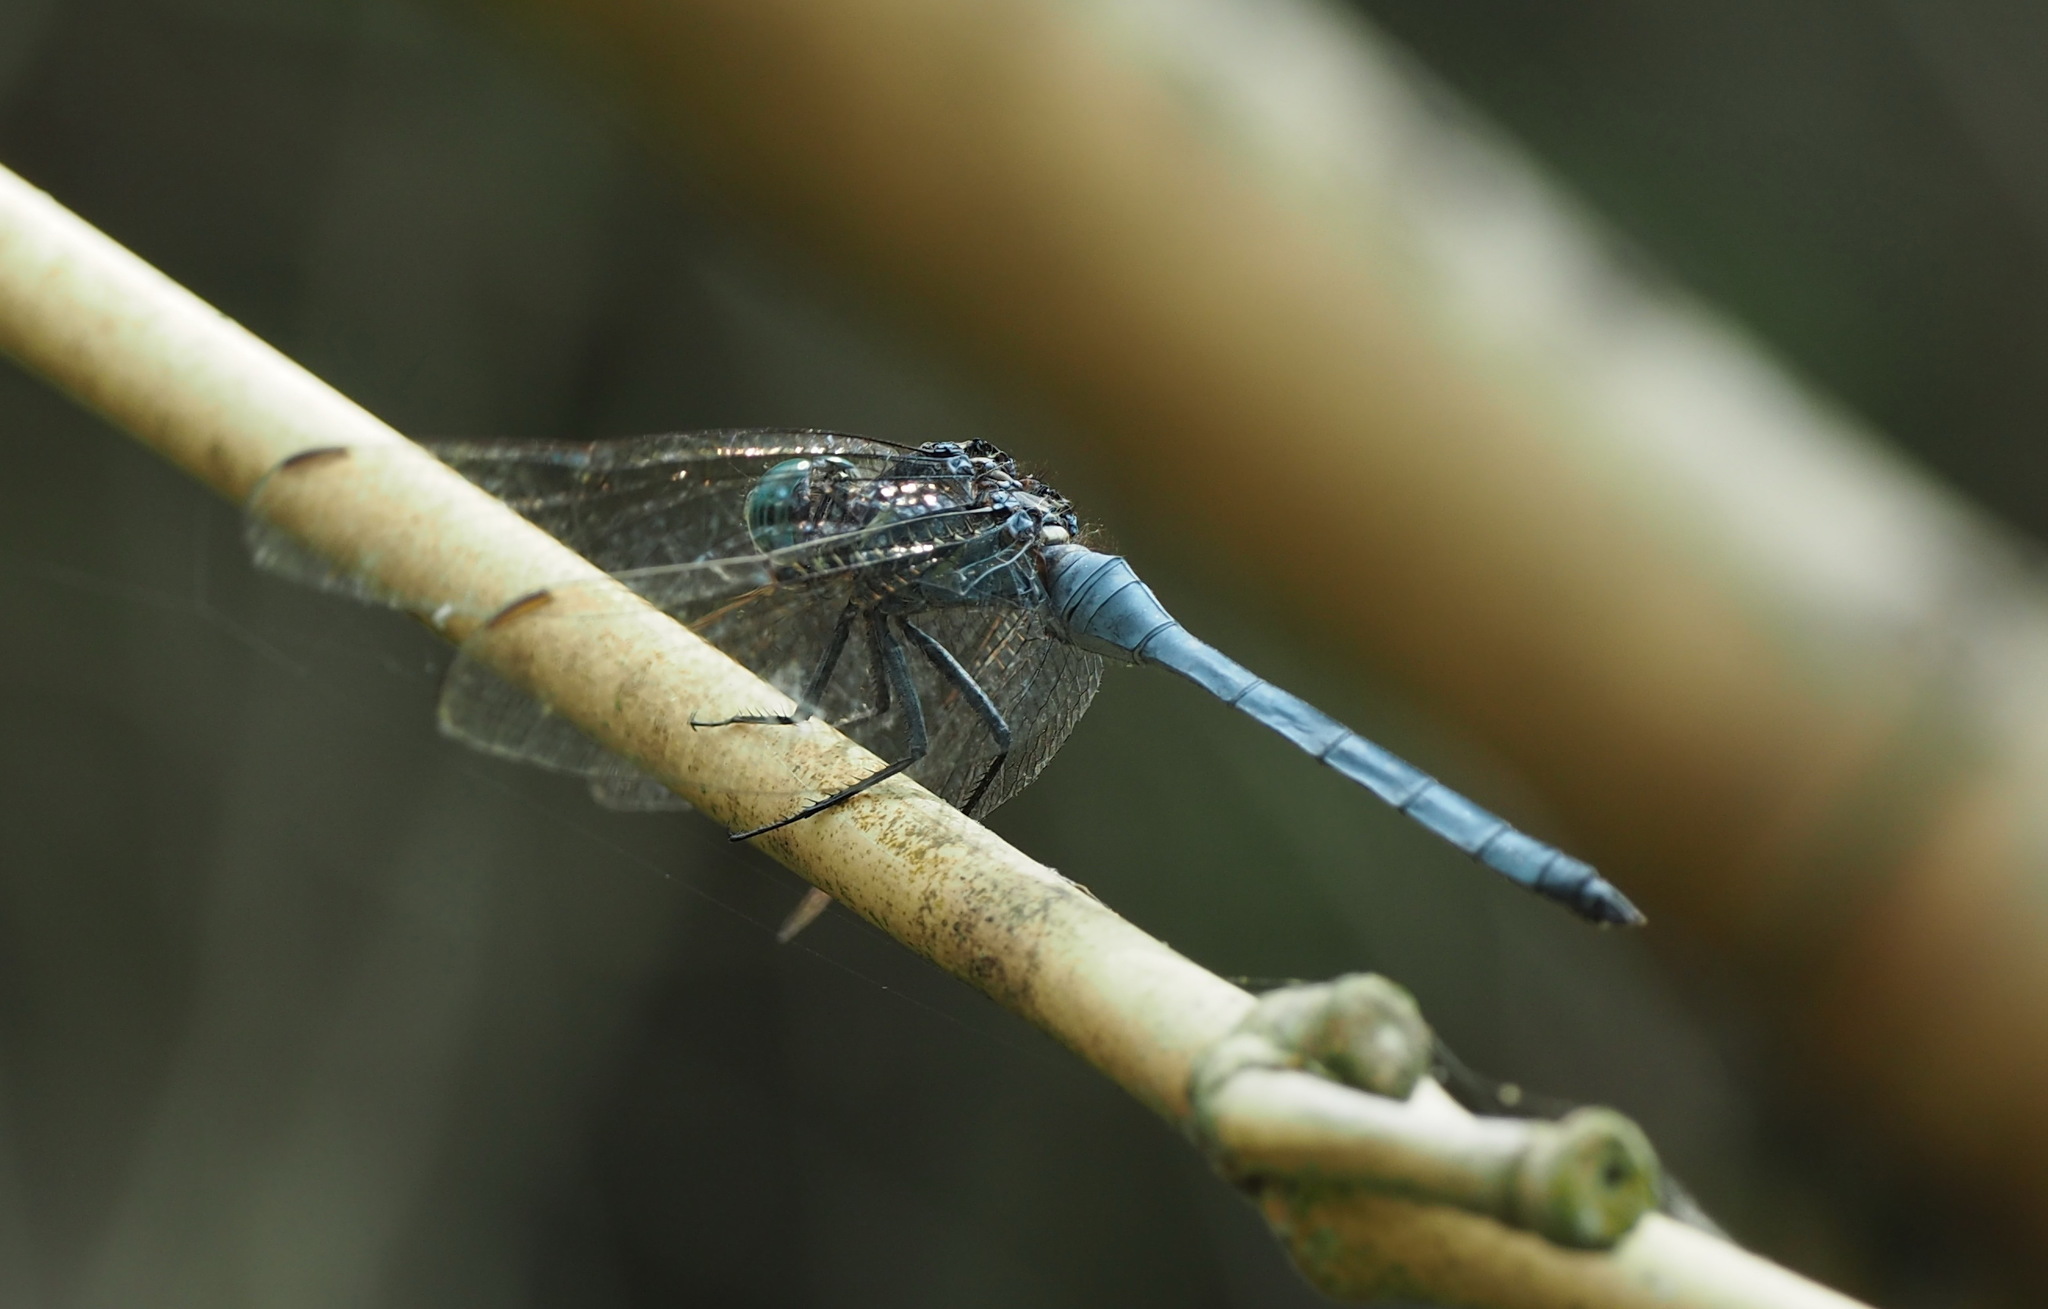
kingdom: Animalia
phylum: Arthropoda
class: Insecta
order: Odonata
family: Libellulidae
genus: Orthetrum
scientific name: Orthetrum luzonicum
